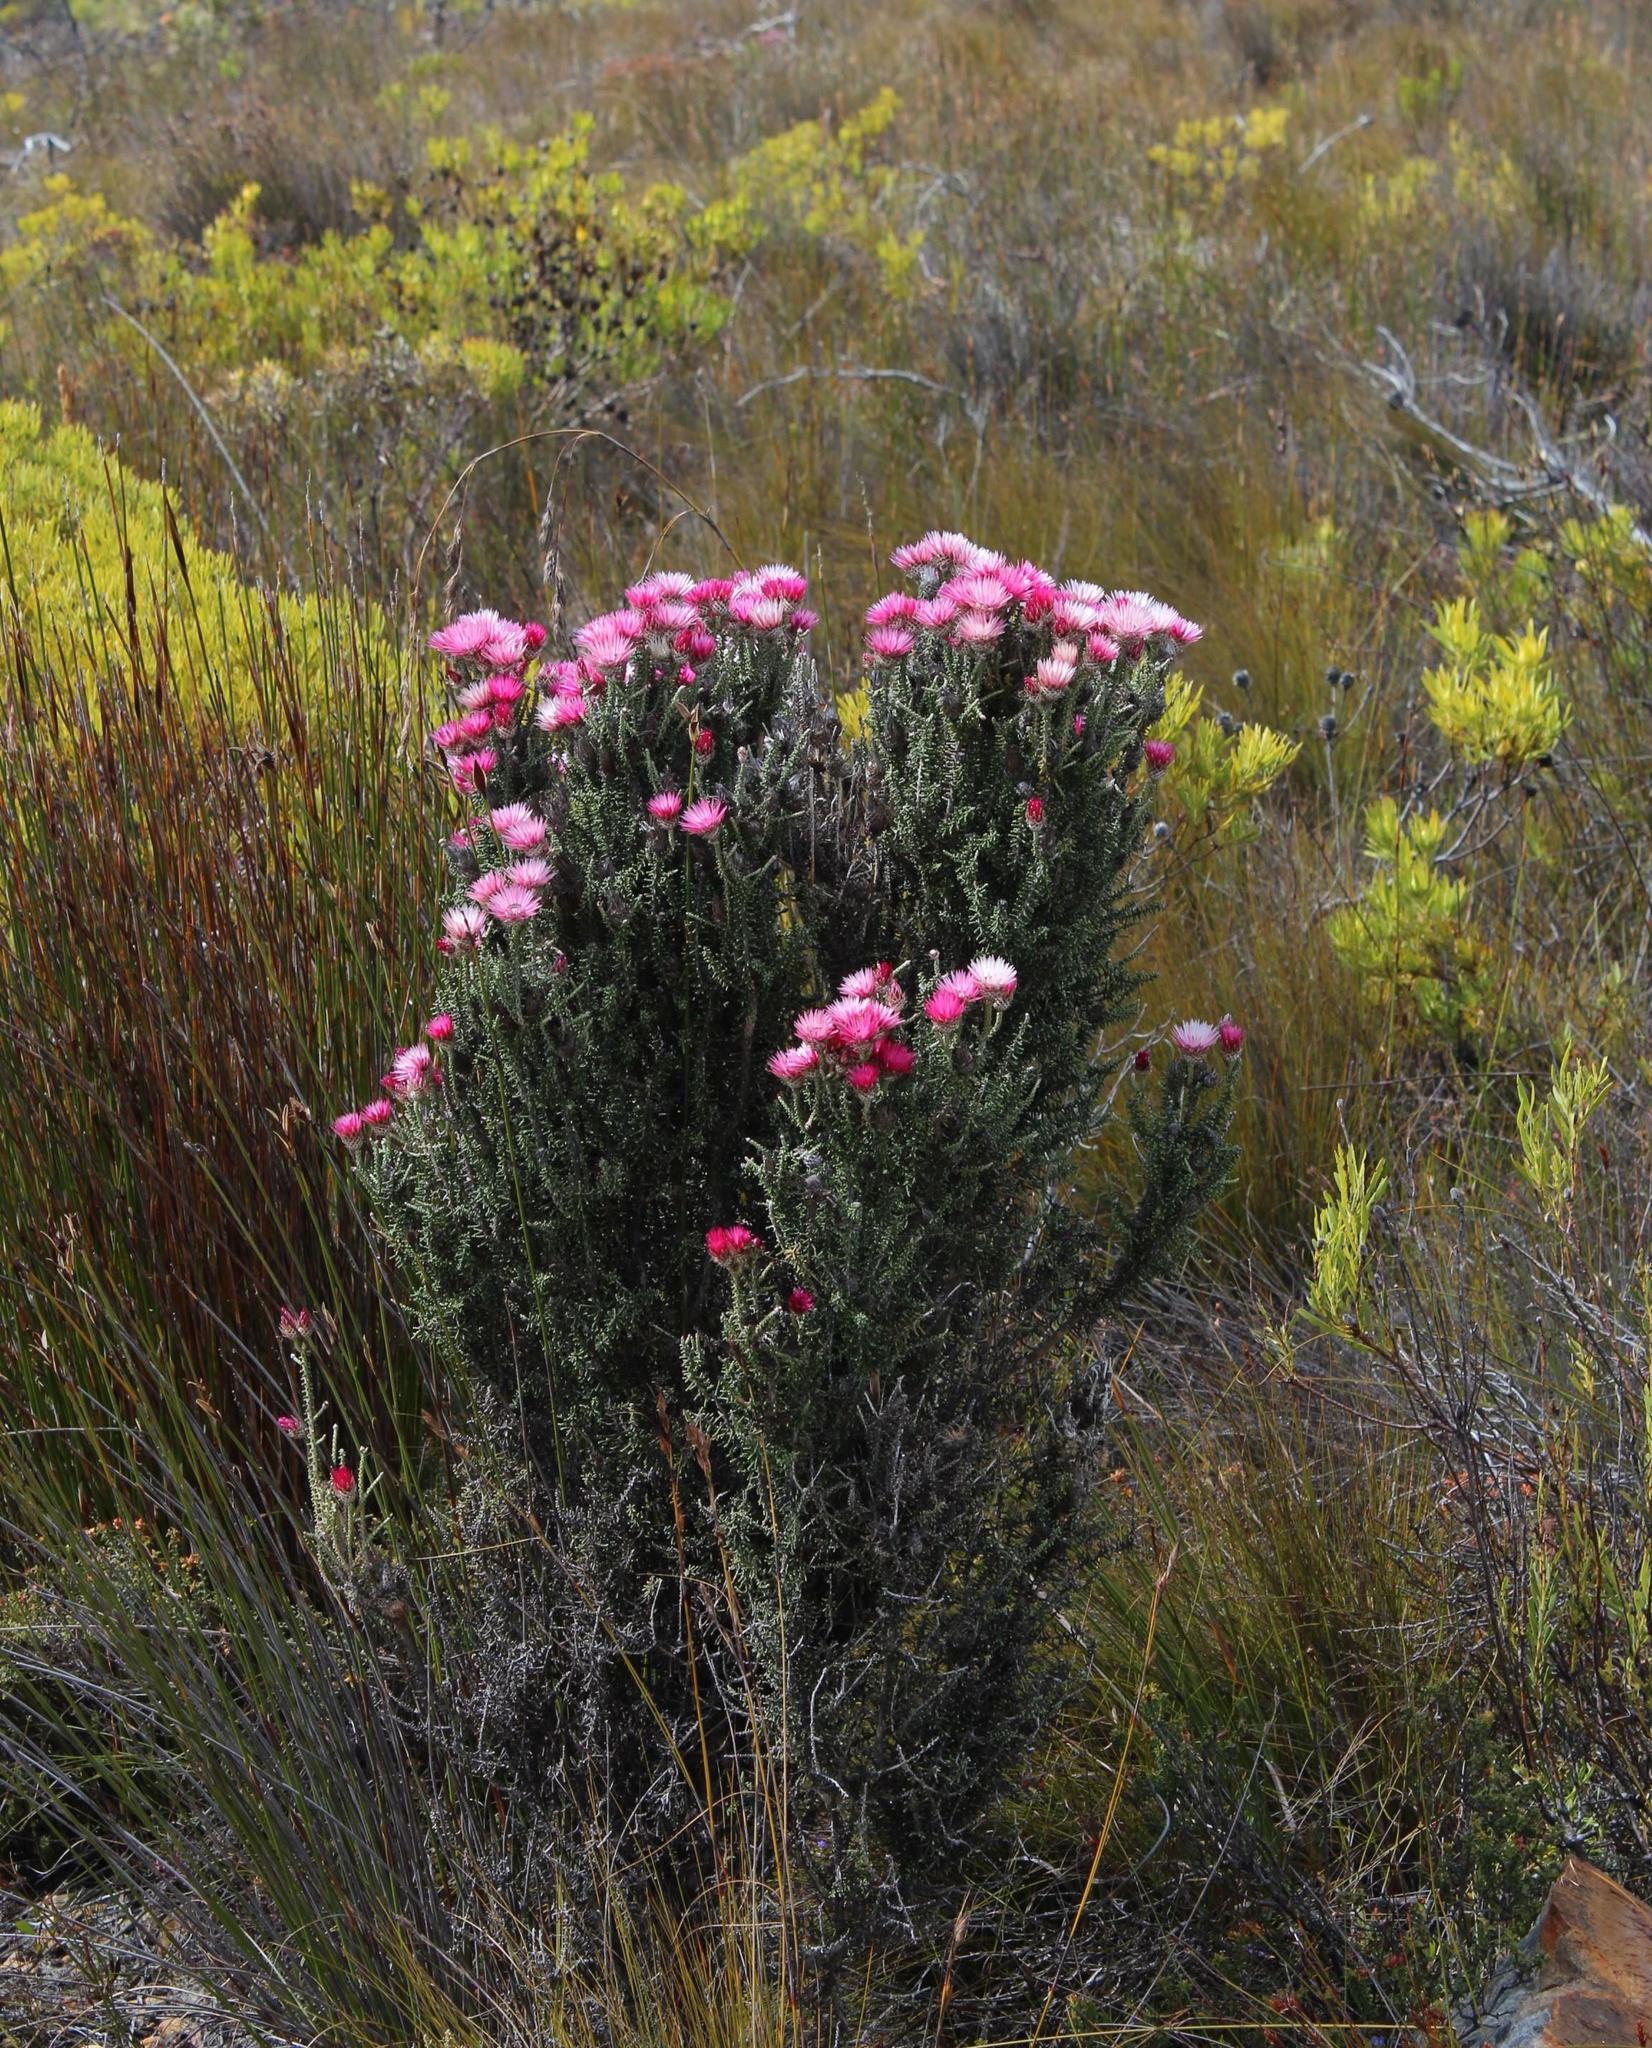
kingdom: Plantae
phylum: Tracheophyta
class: Magnoliopsida
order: Asterales
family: Asteraceae
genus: Phaenocoma
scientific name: Phaenocoma prolifera
